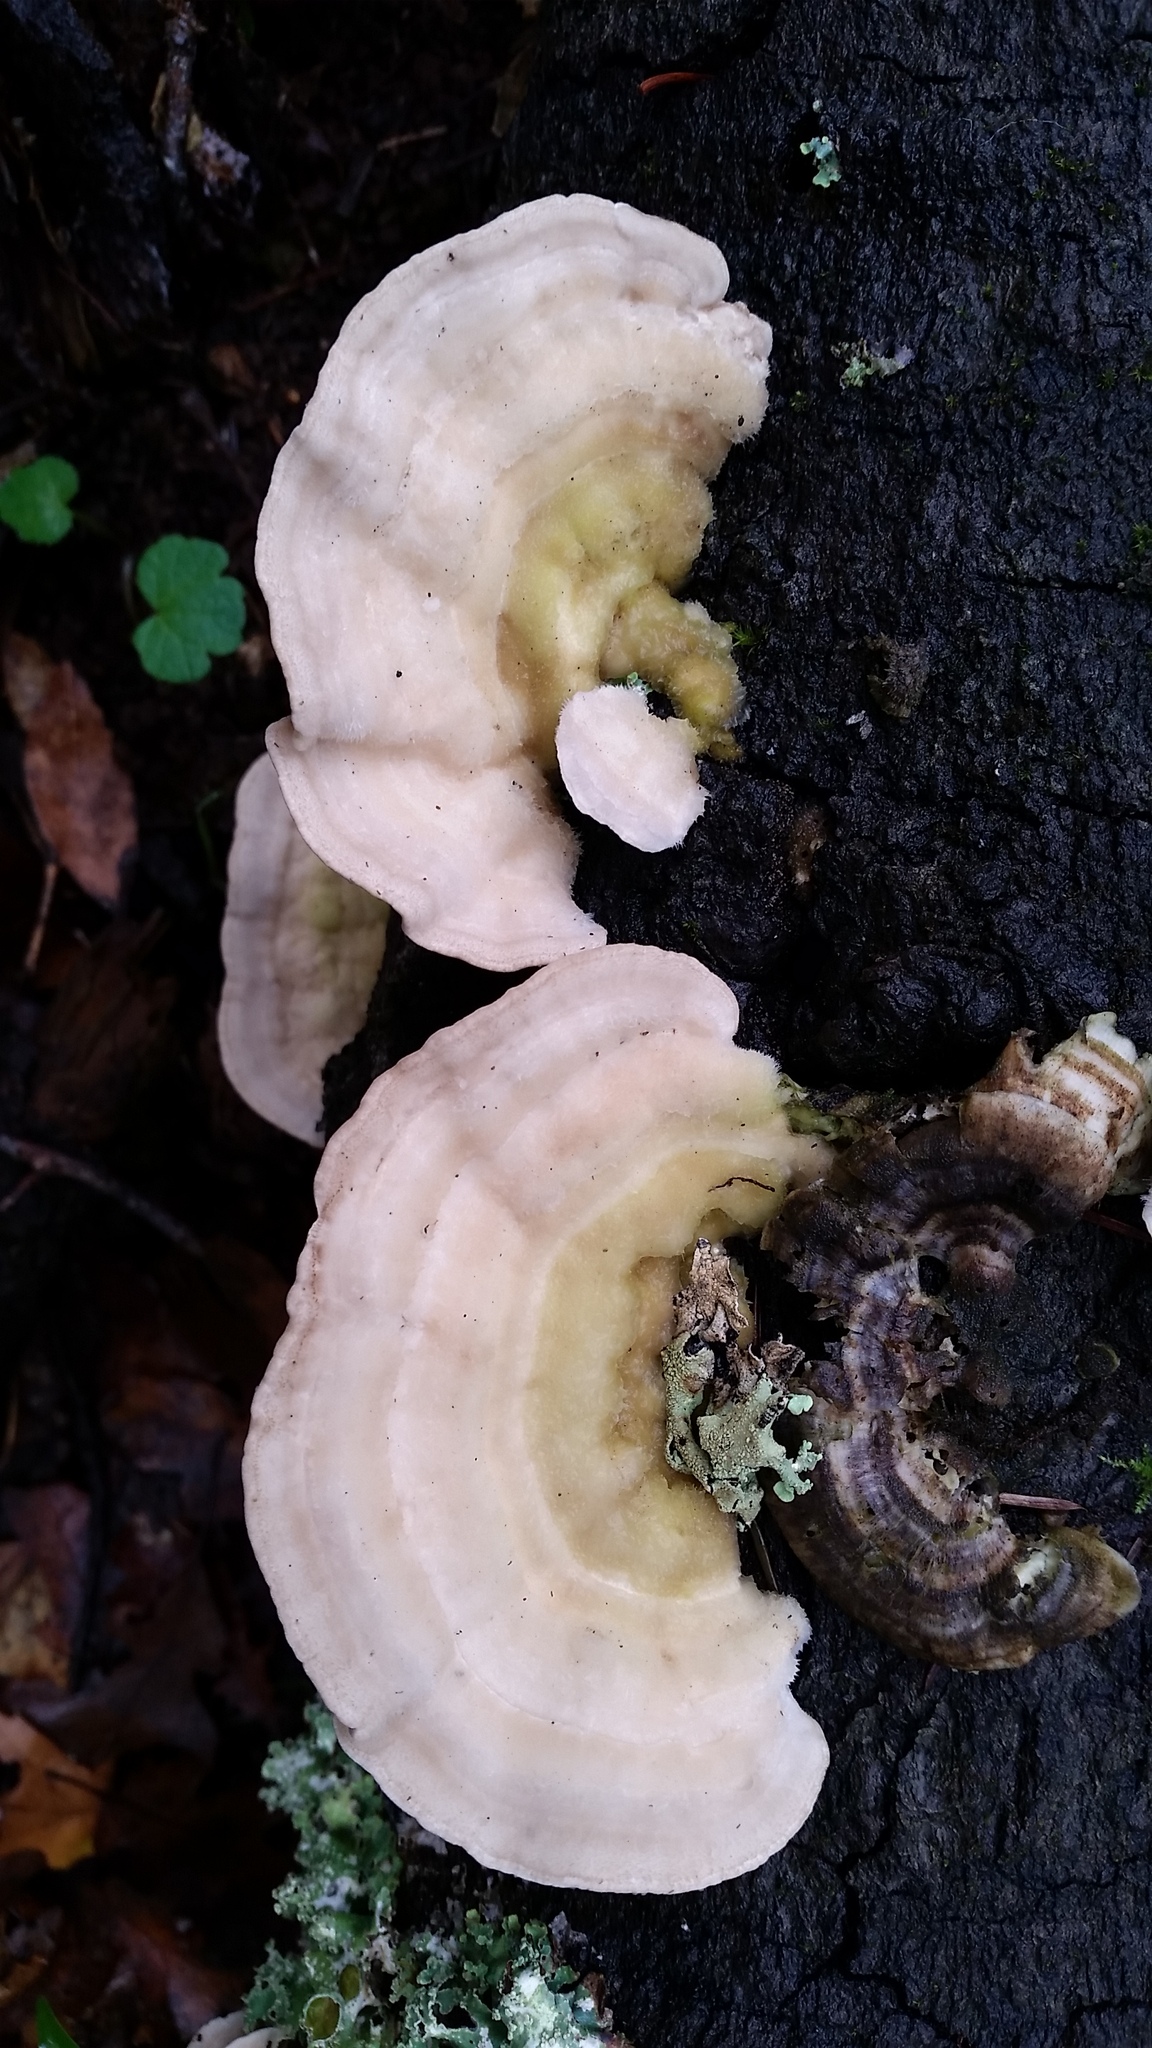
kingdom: Fungi
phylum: Basidiomycota
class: Agaricomycetes
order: Polyporales
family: Polyporaceae
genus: Lenzites
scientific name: Lenzites betulinus
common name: Birch mazegill
